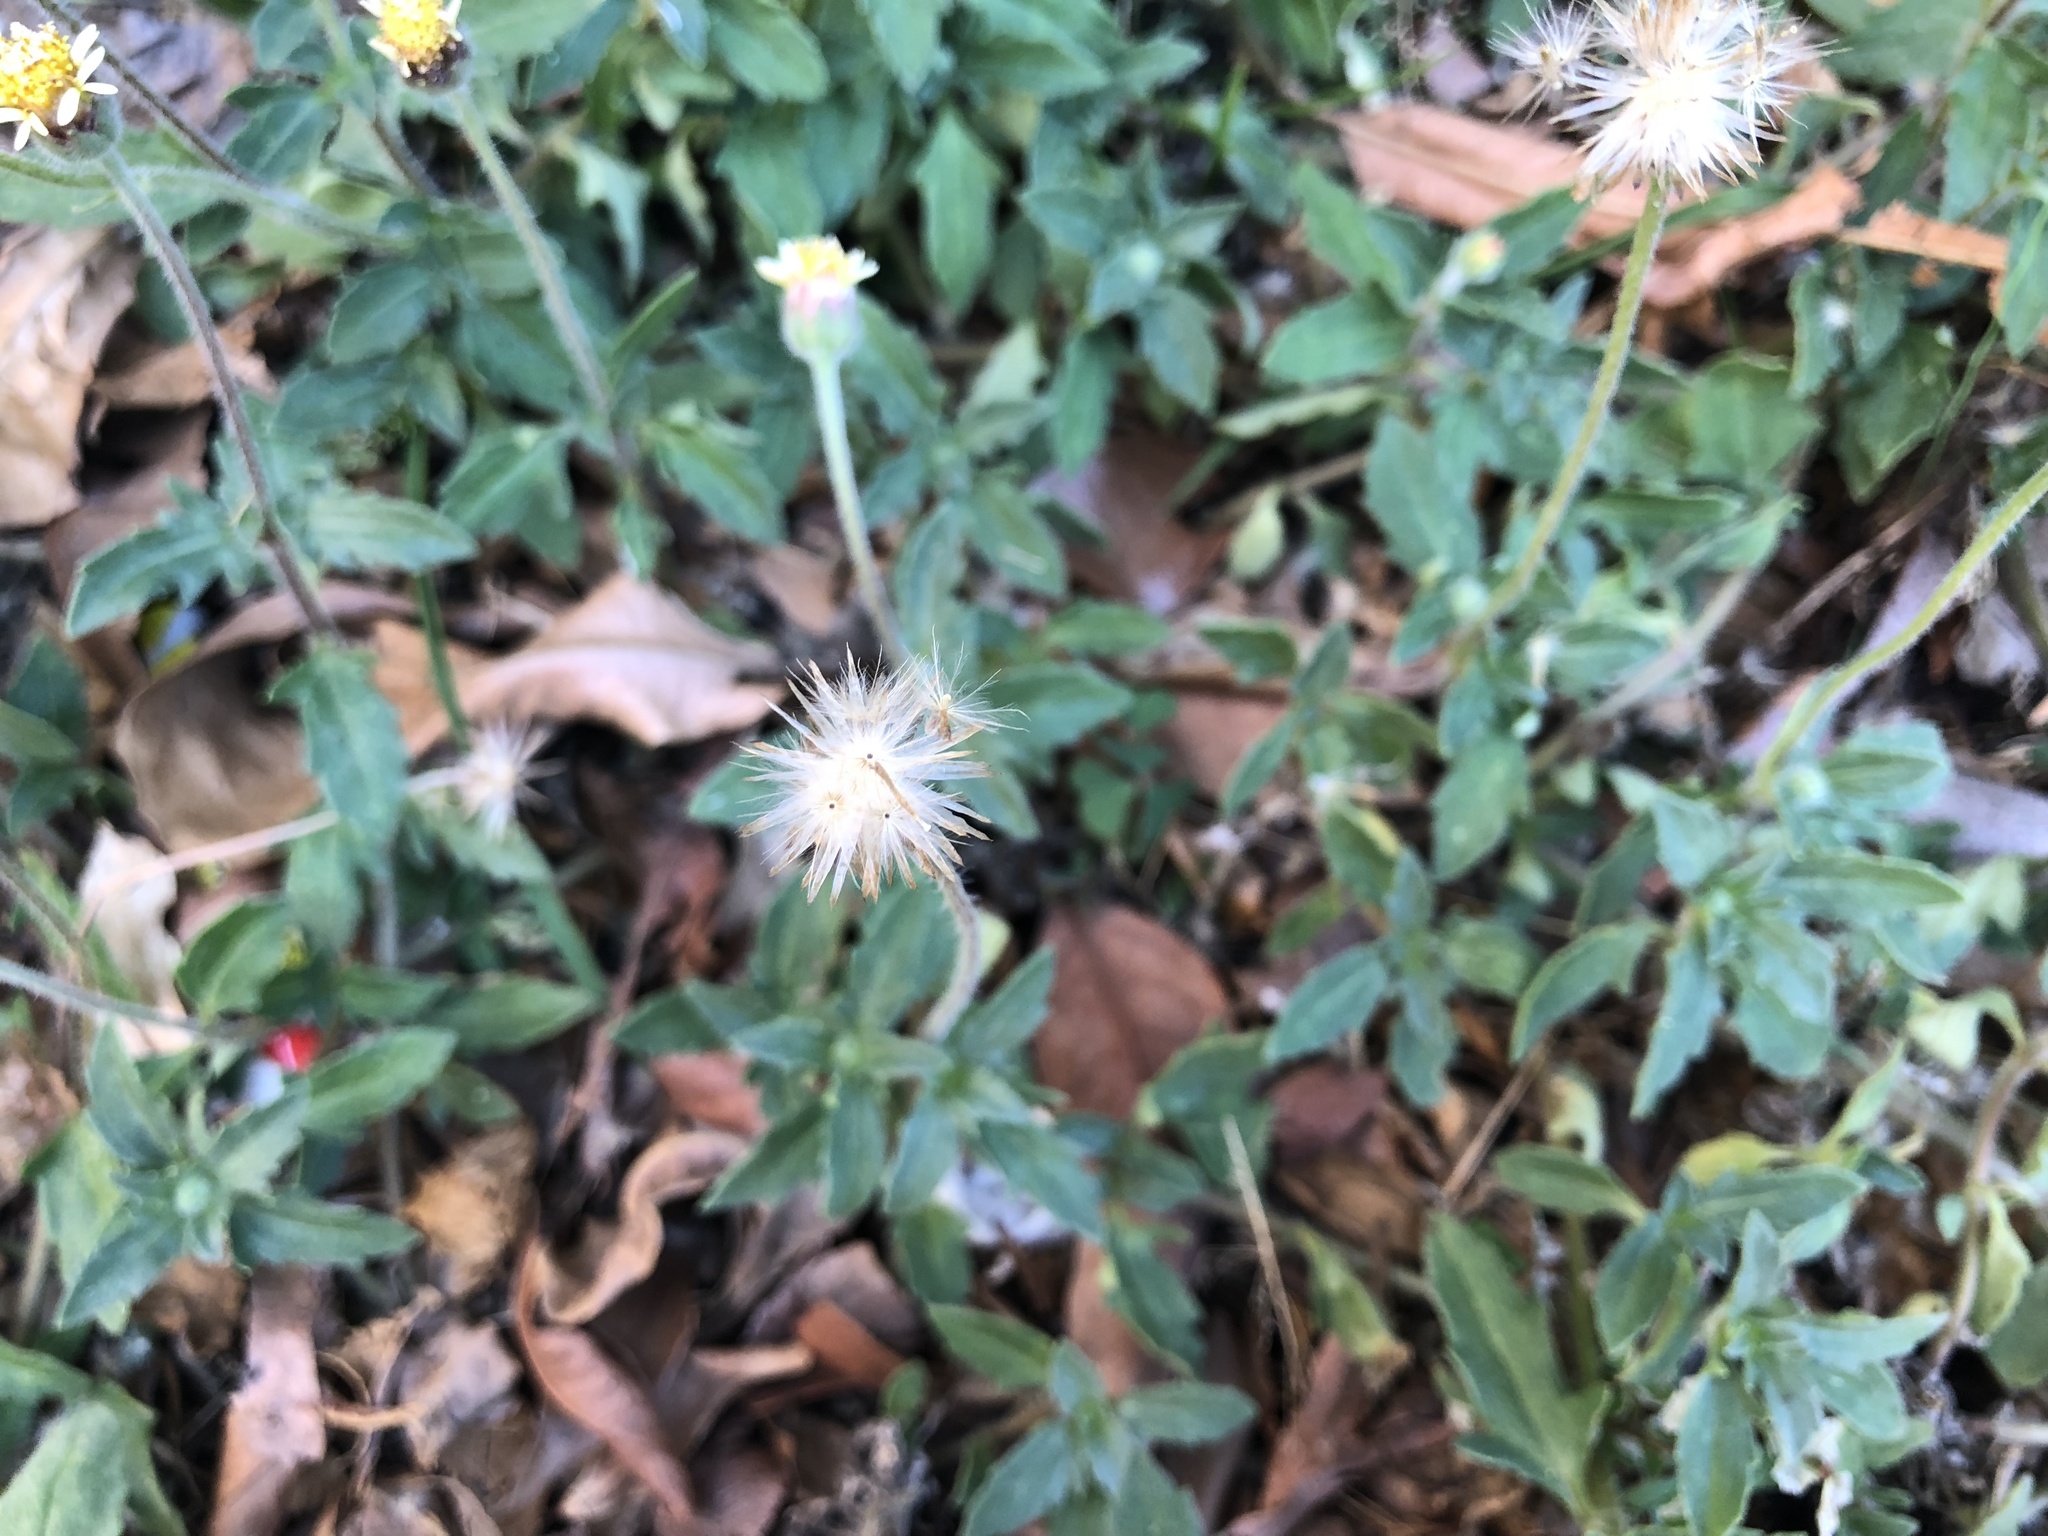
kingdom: Plantae
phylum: Tracheophyta
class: Magnoliopsida
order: Asterales
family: Asteraceae
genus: Tridax
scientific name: Tridax procumbens
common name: Coatbuttons
